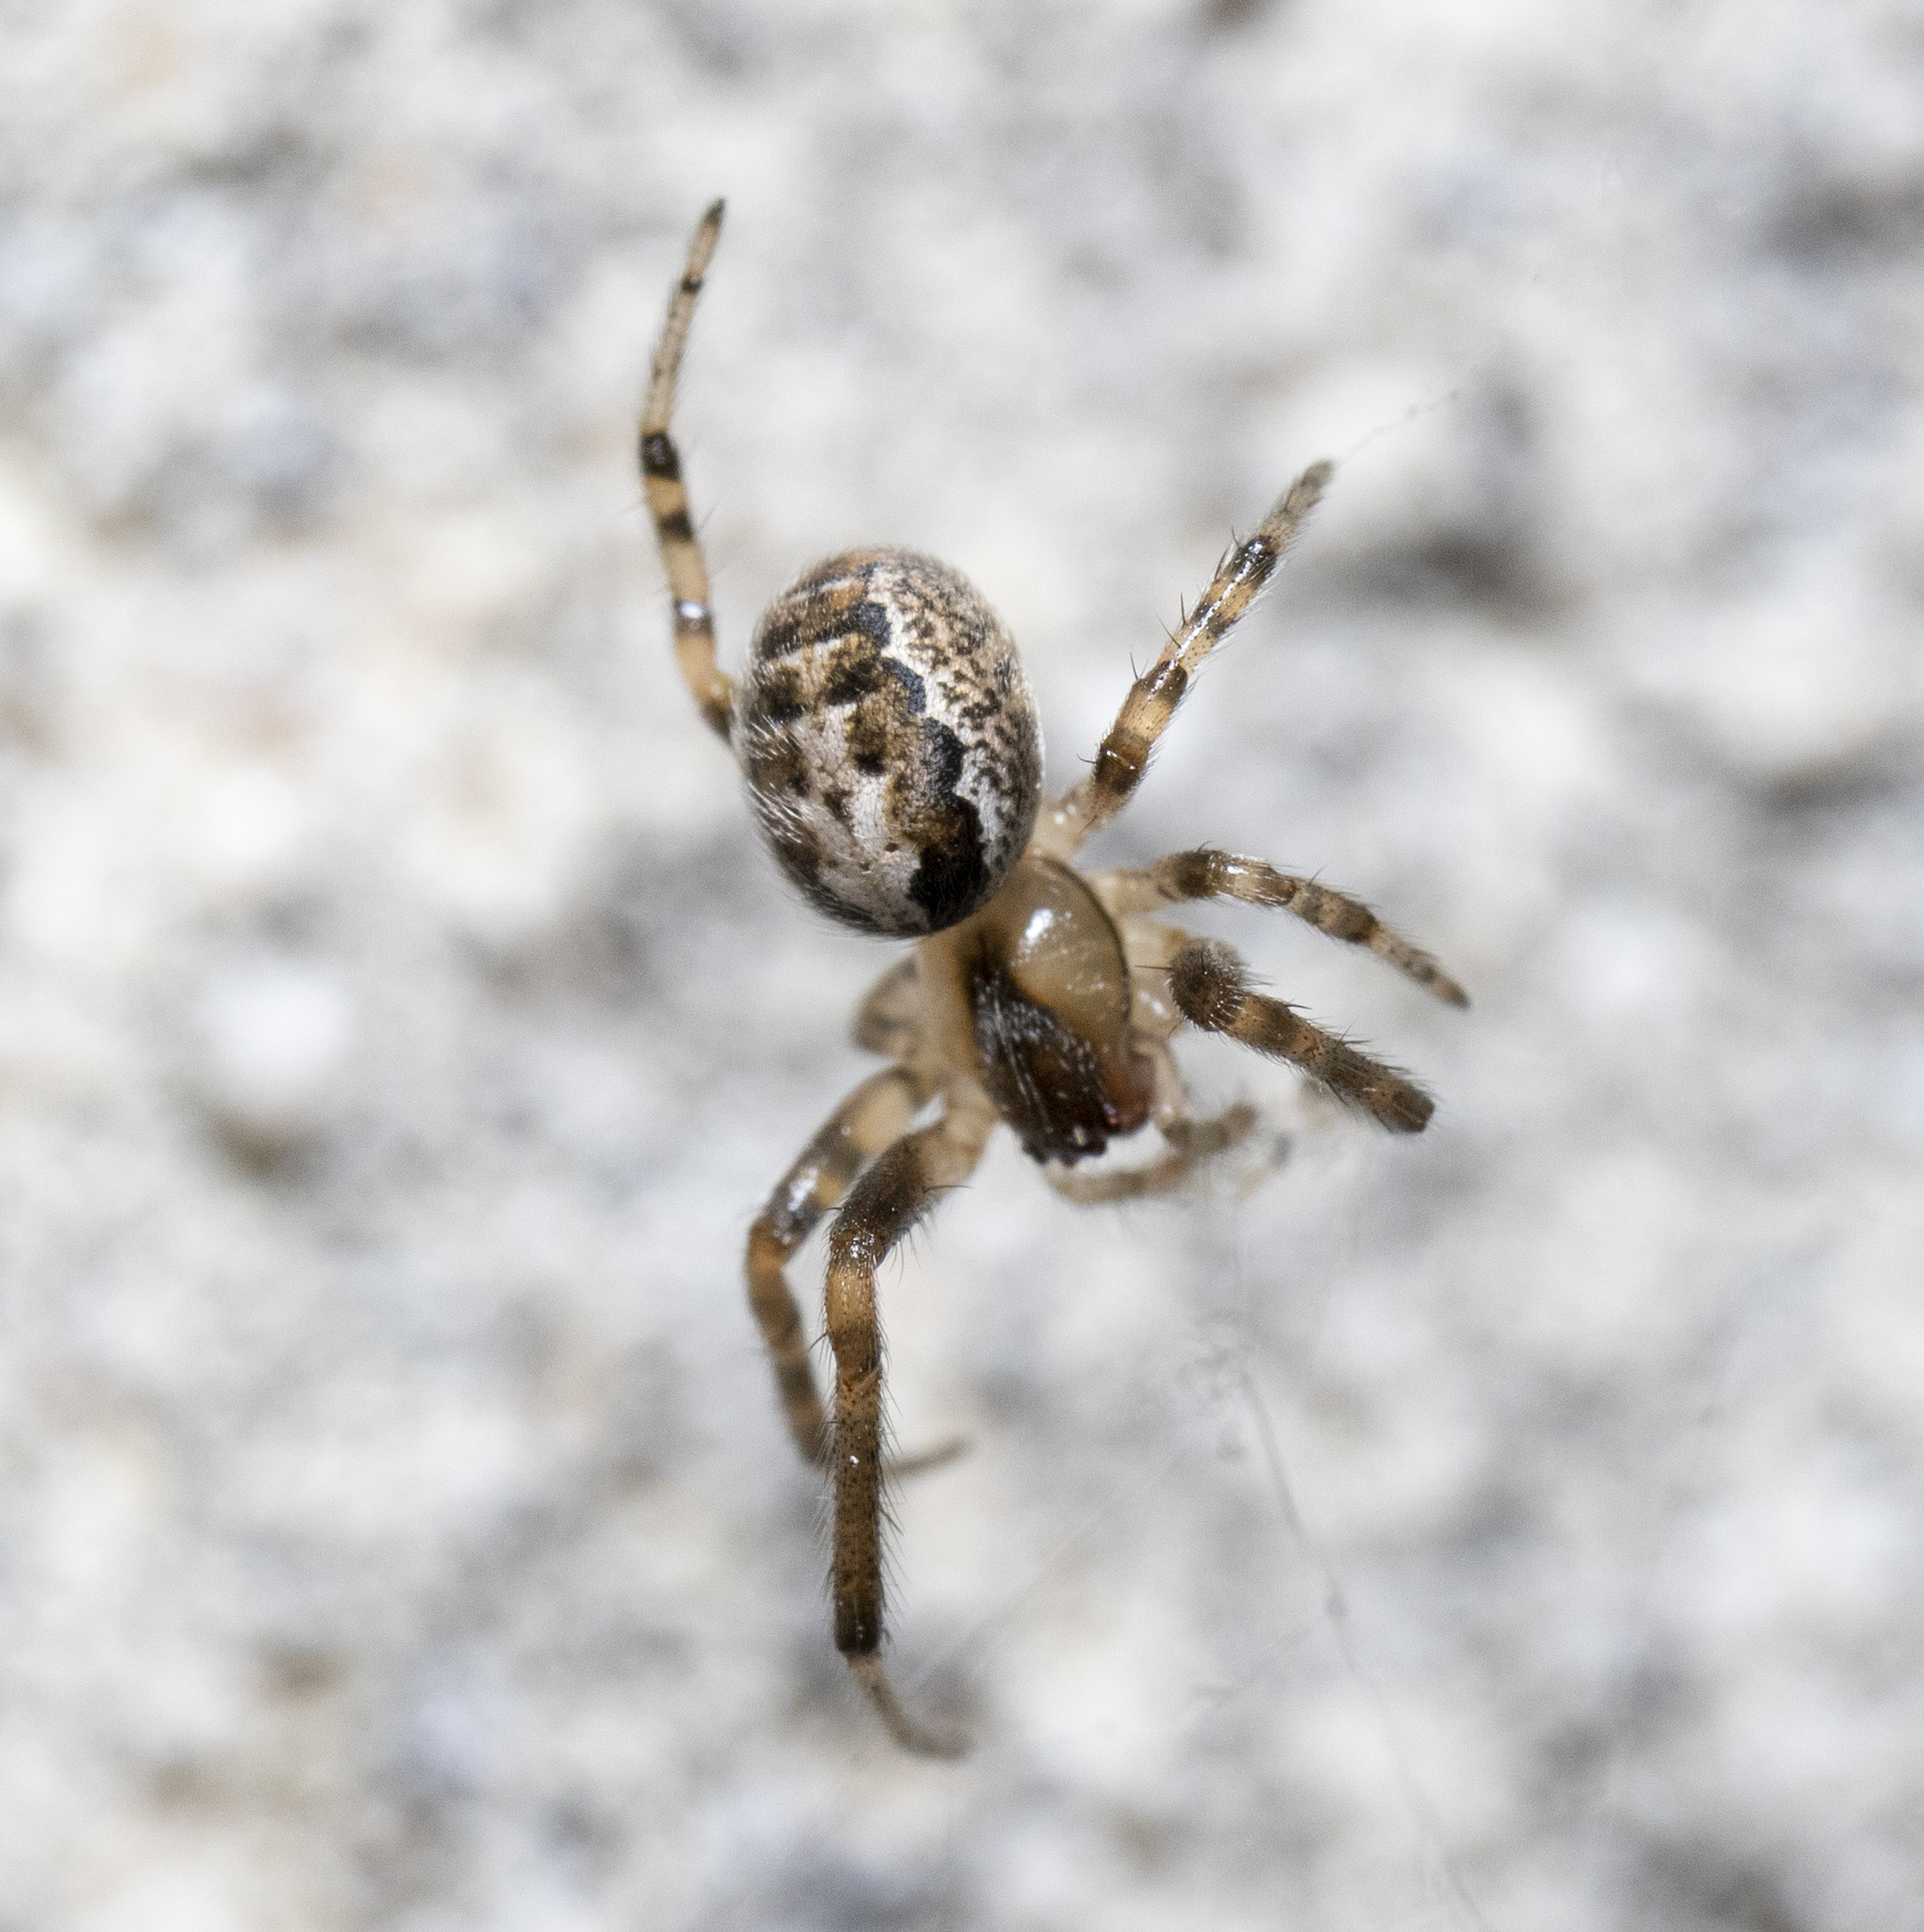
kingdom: Animalia
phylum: Arthropoda
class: Arachnida
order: Araneae
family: Araneidae
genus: Zygiella
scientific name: Zygiella x-notata
